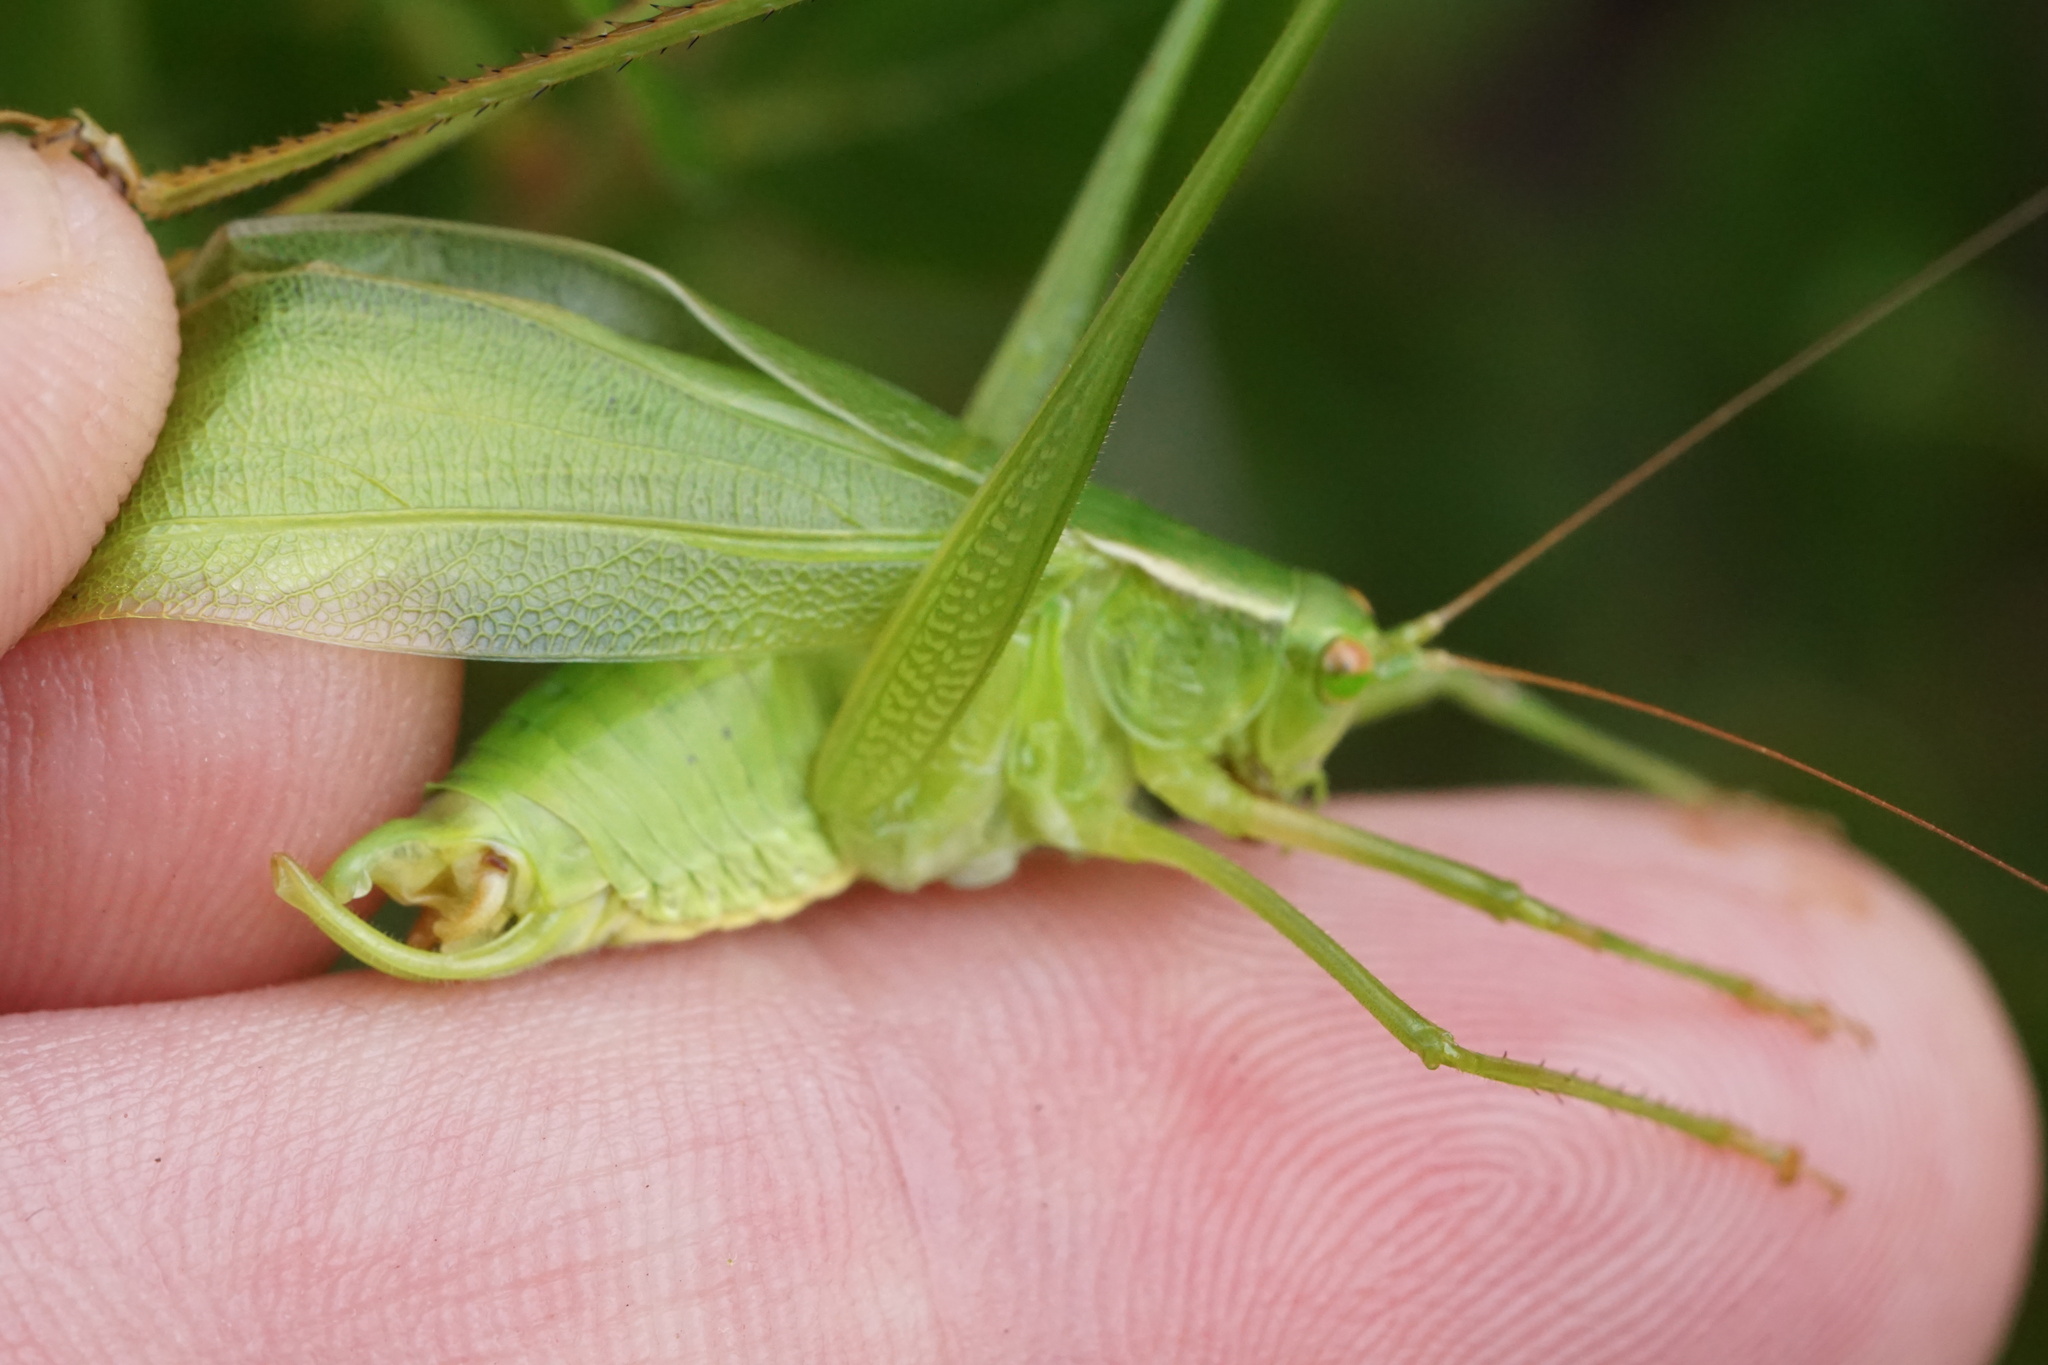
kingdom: Animalia
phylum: Arthropoda
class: Insecta
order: Orthoptera
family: Tettigoniidae
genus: Scudderia
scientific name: Scudderia curvicauda
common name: Curve-tailed bush katydid
